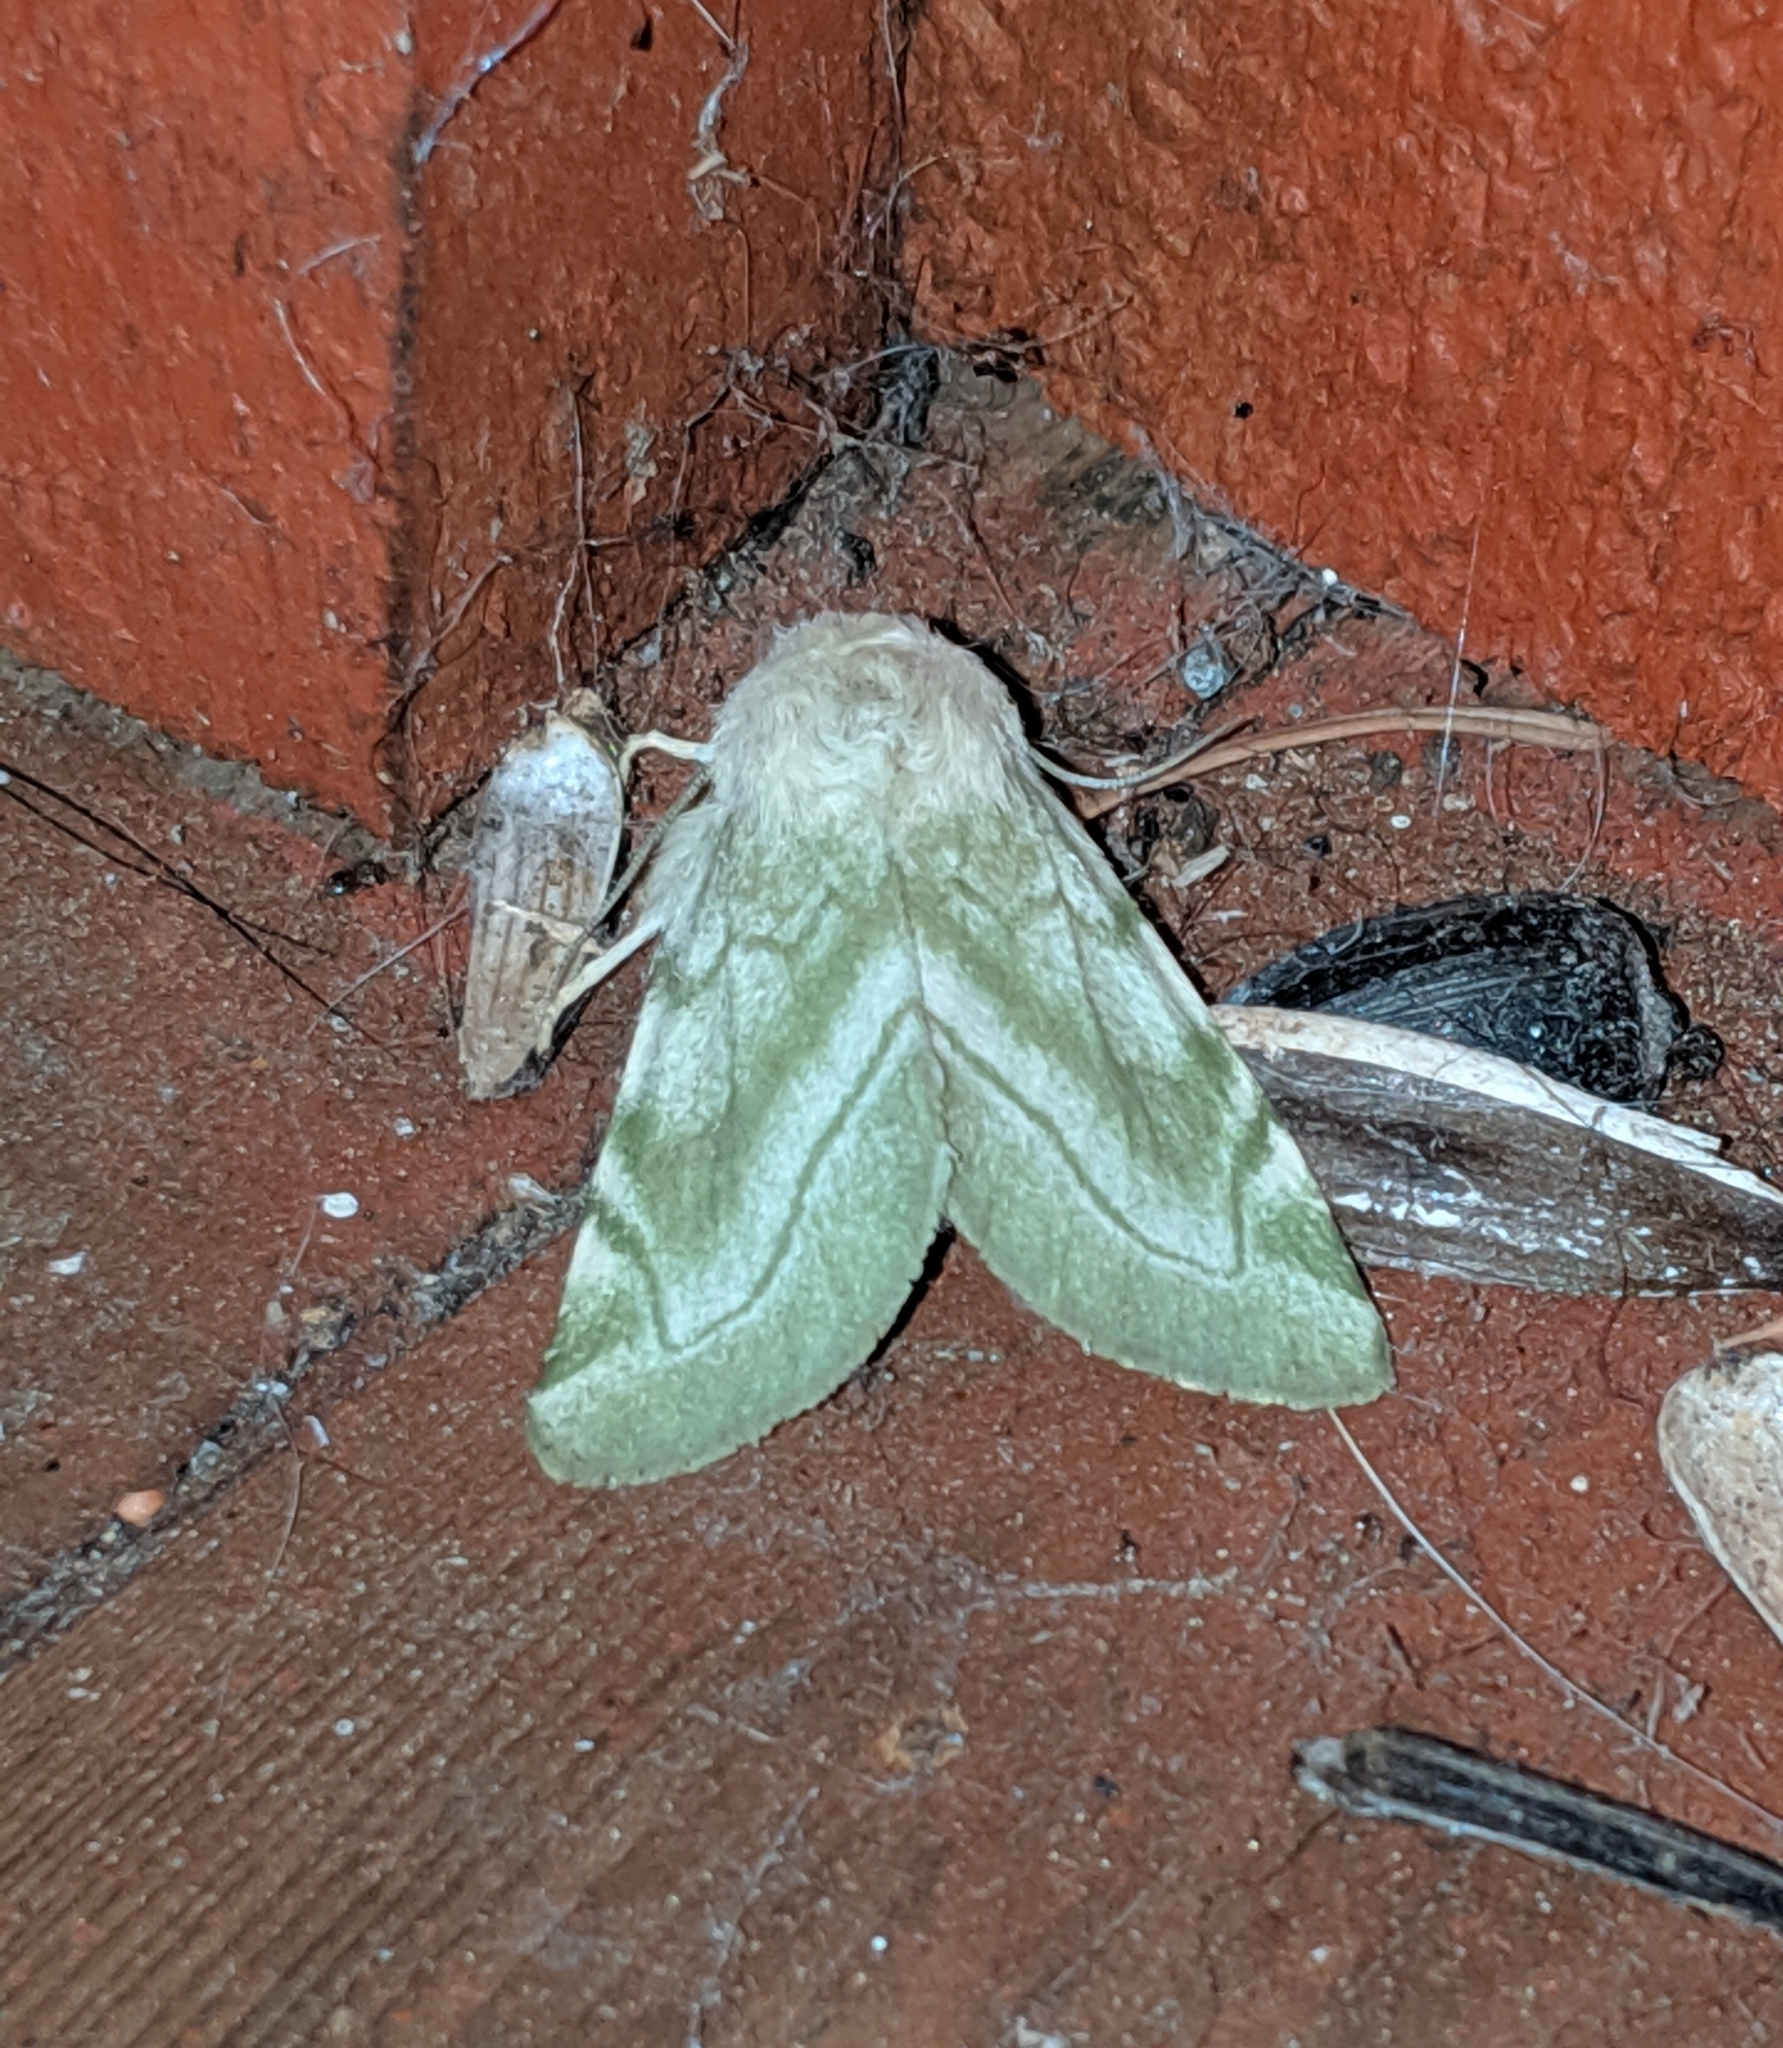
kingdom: Animalia
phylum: Arthropoda
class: Insecta
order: Lepidoptera
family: Noctuidae
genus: Zotheca
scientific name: Zotheca tranquilla
